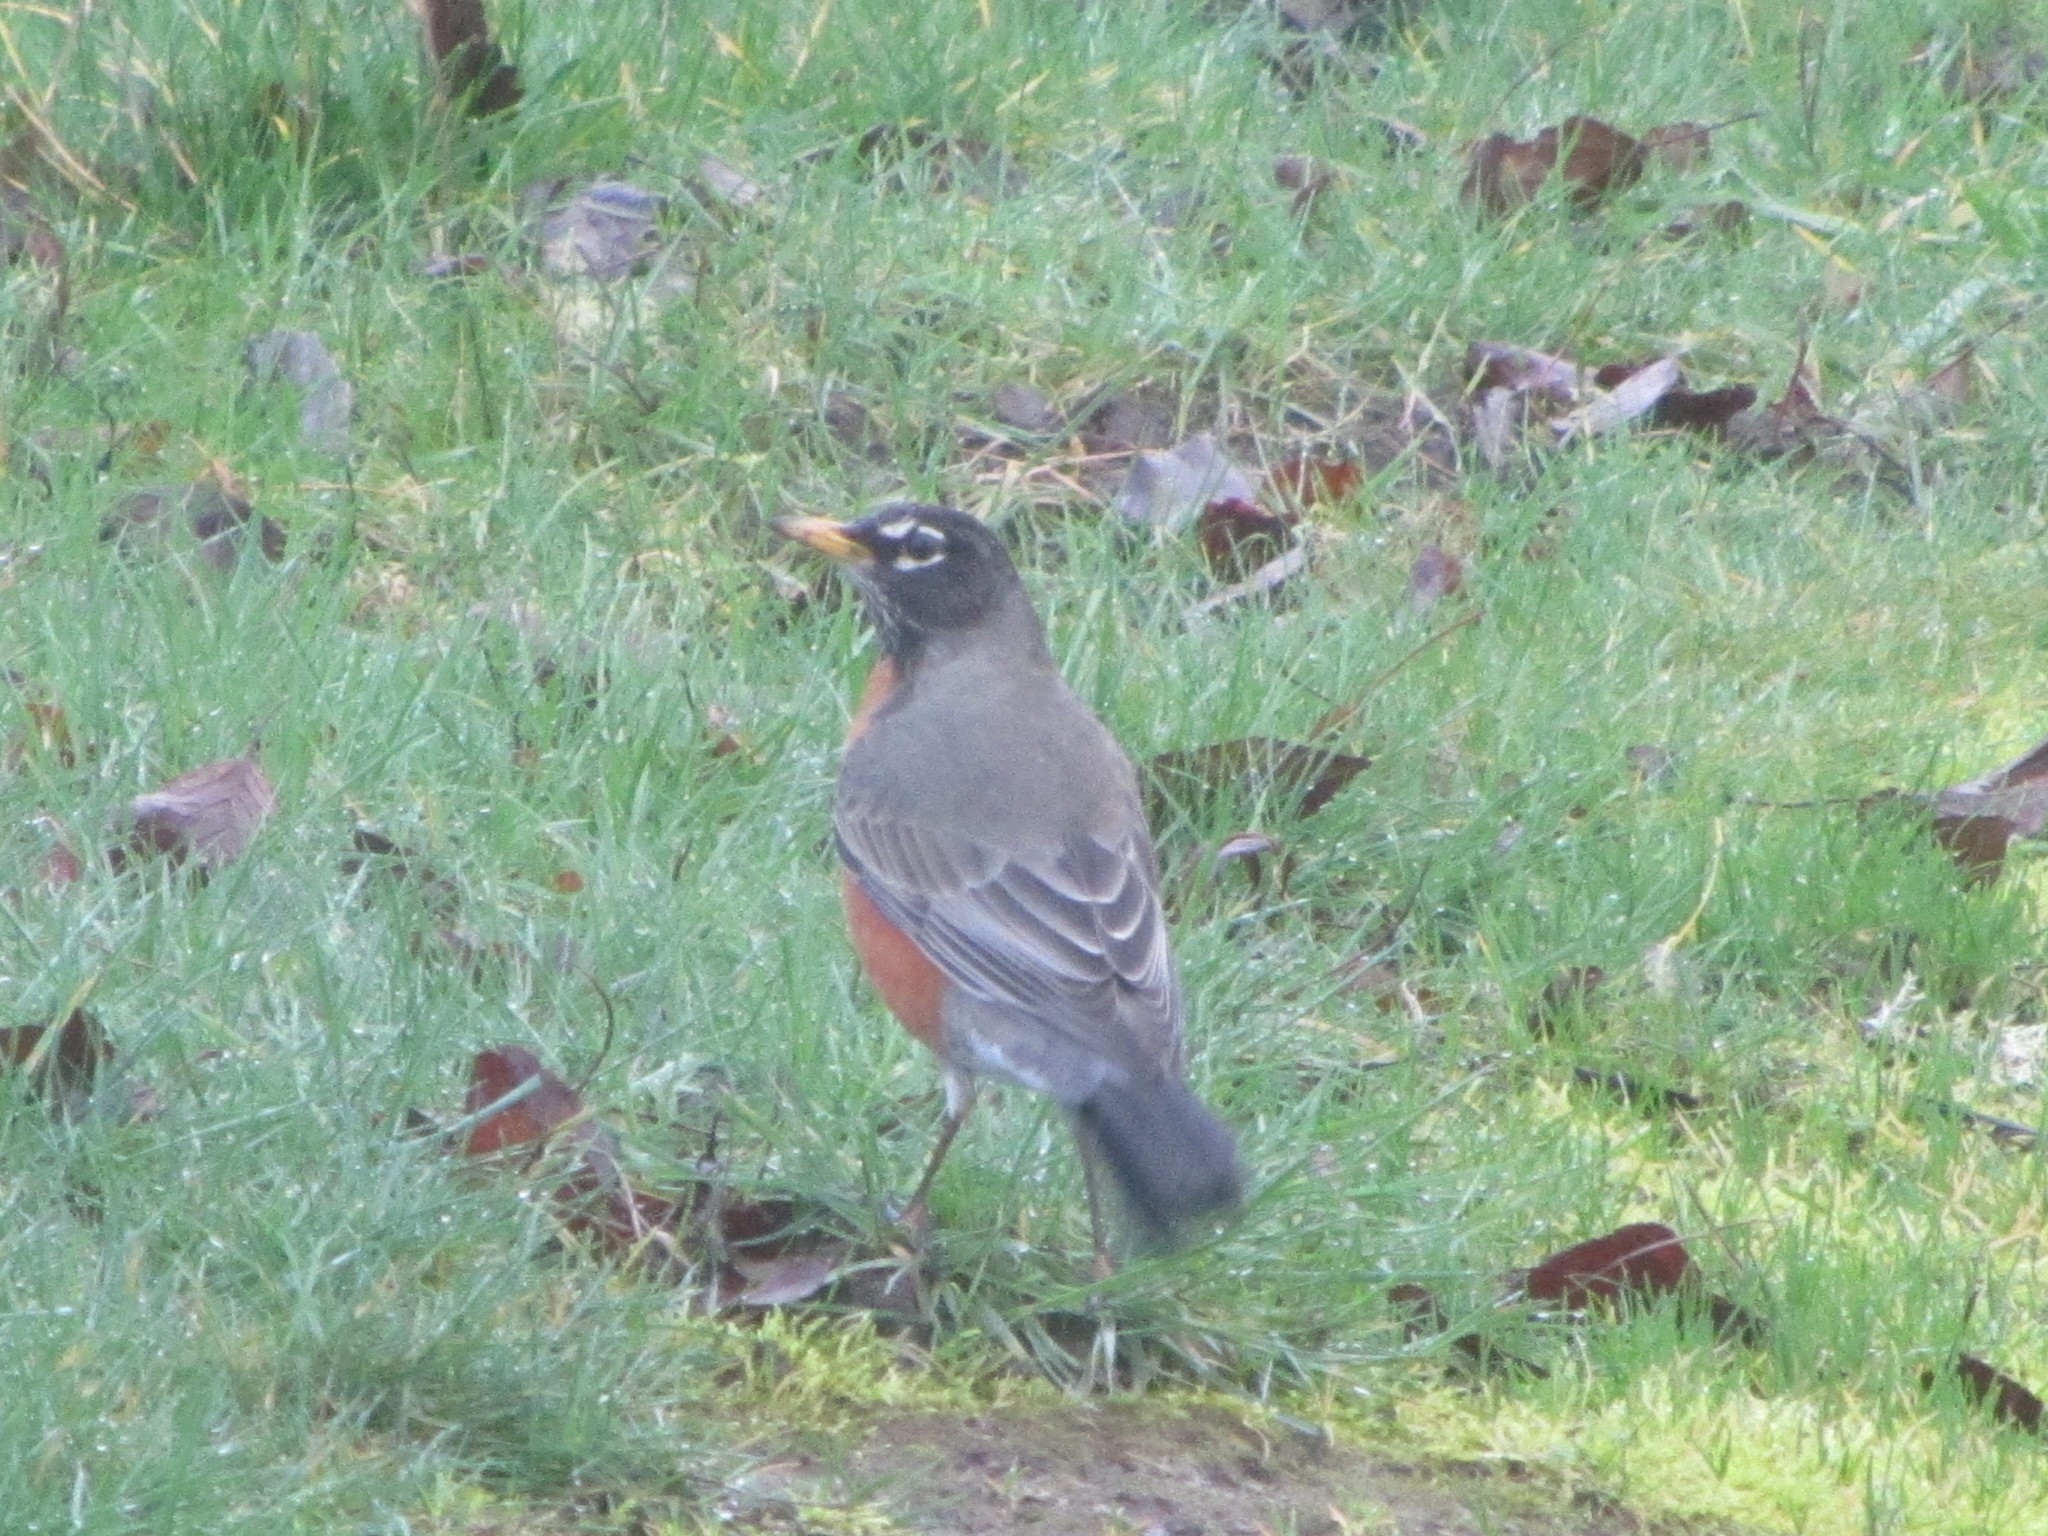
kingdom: Animalia
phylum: Chordata
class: Aves
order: Passeriformes
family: Turdidae
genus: Turdus
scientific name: Turdus migratorius
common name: American robin
